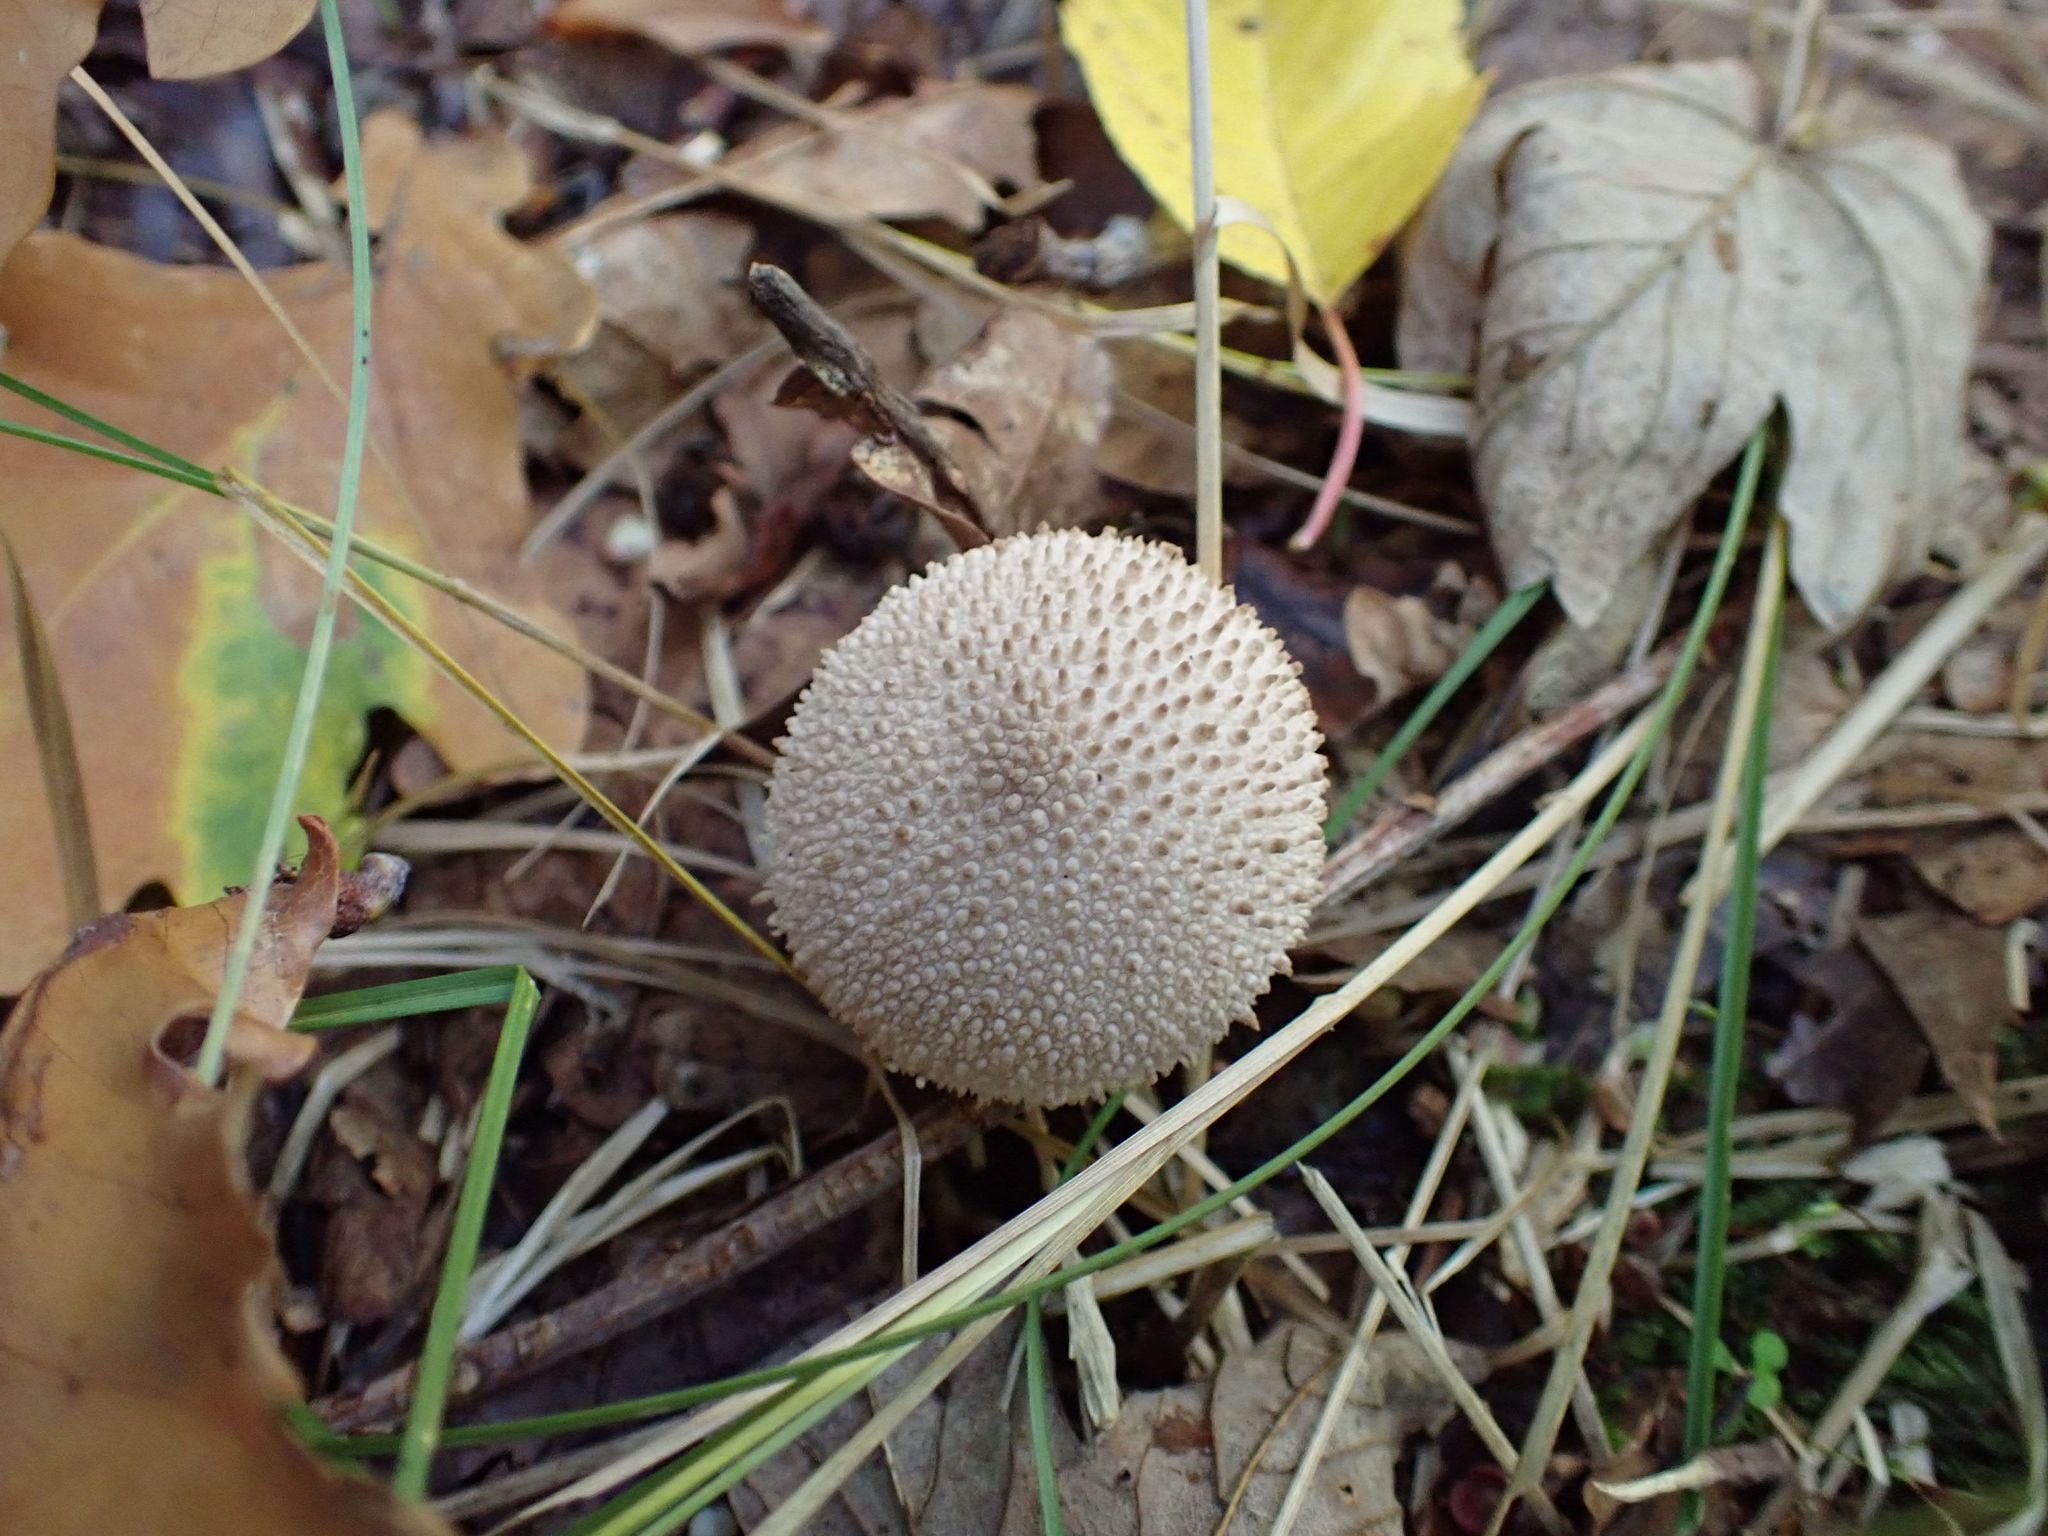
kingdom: Fungi
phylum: Basidiomycota
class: Agaricomycetes
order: Agaricales
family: Lycoperdaceae
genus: Lycoperdon
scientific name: Lycoperdon perlatum
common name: Common puffball
